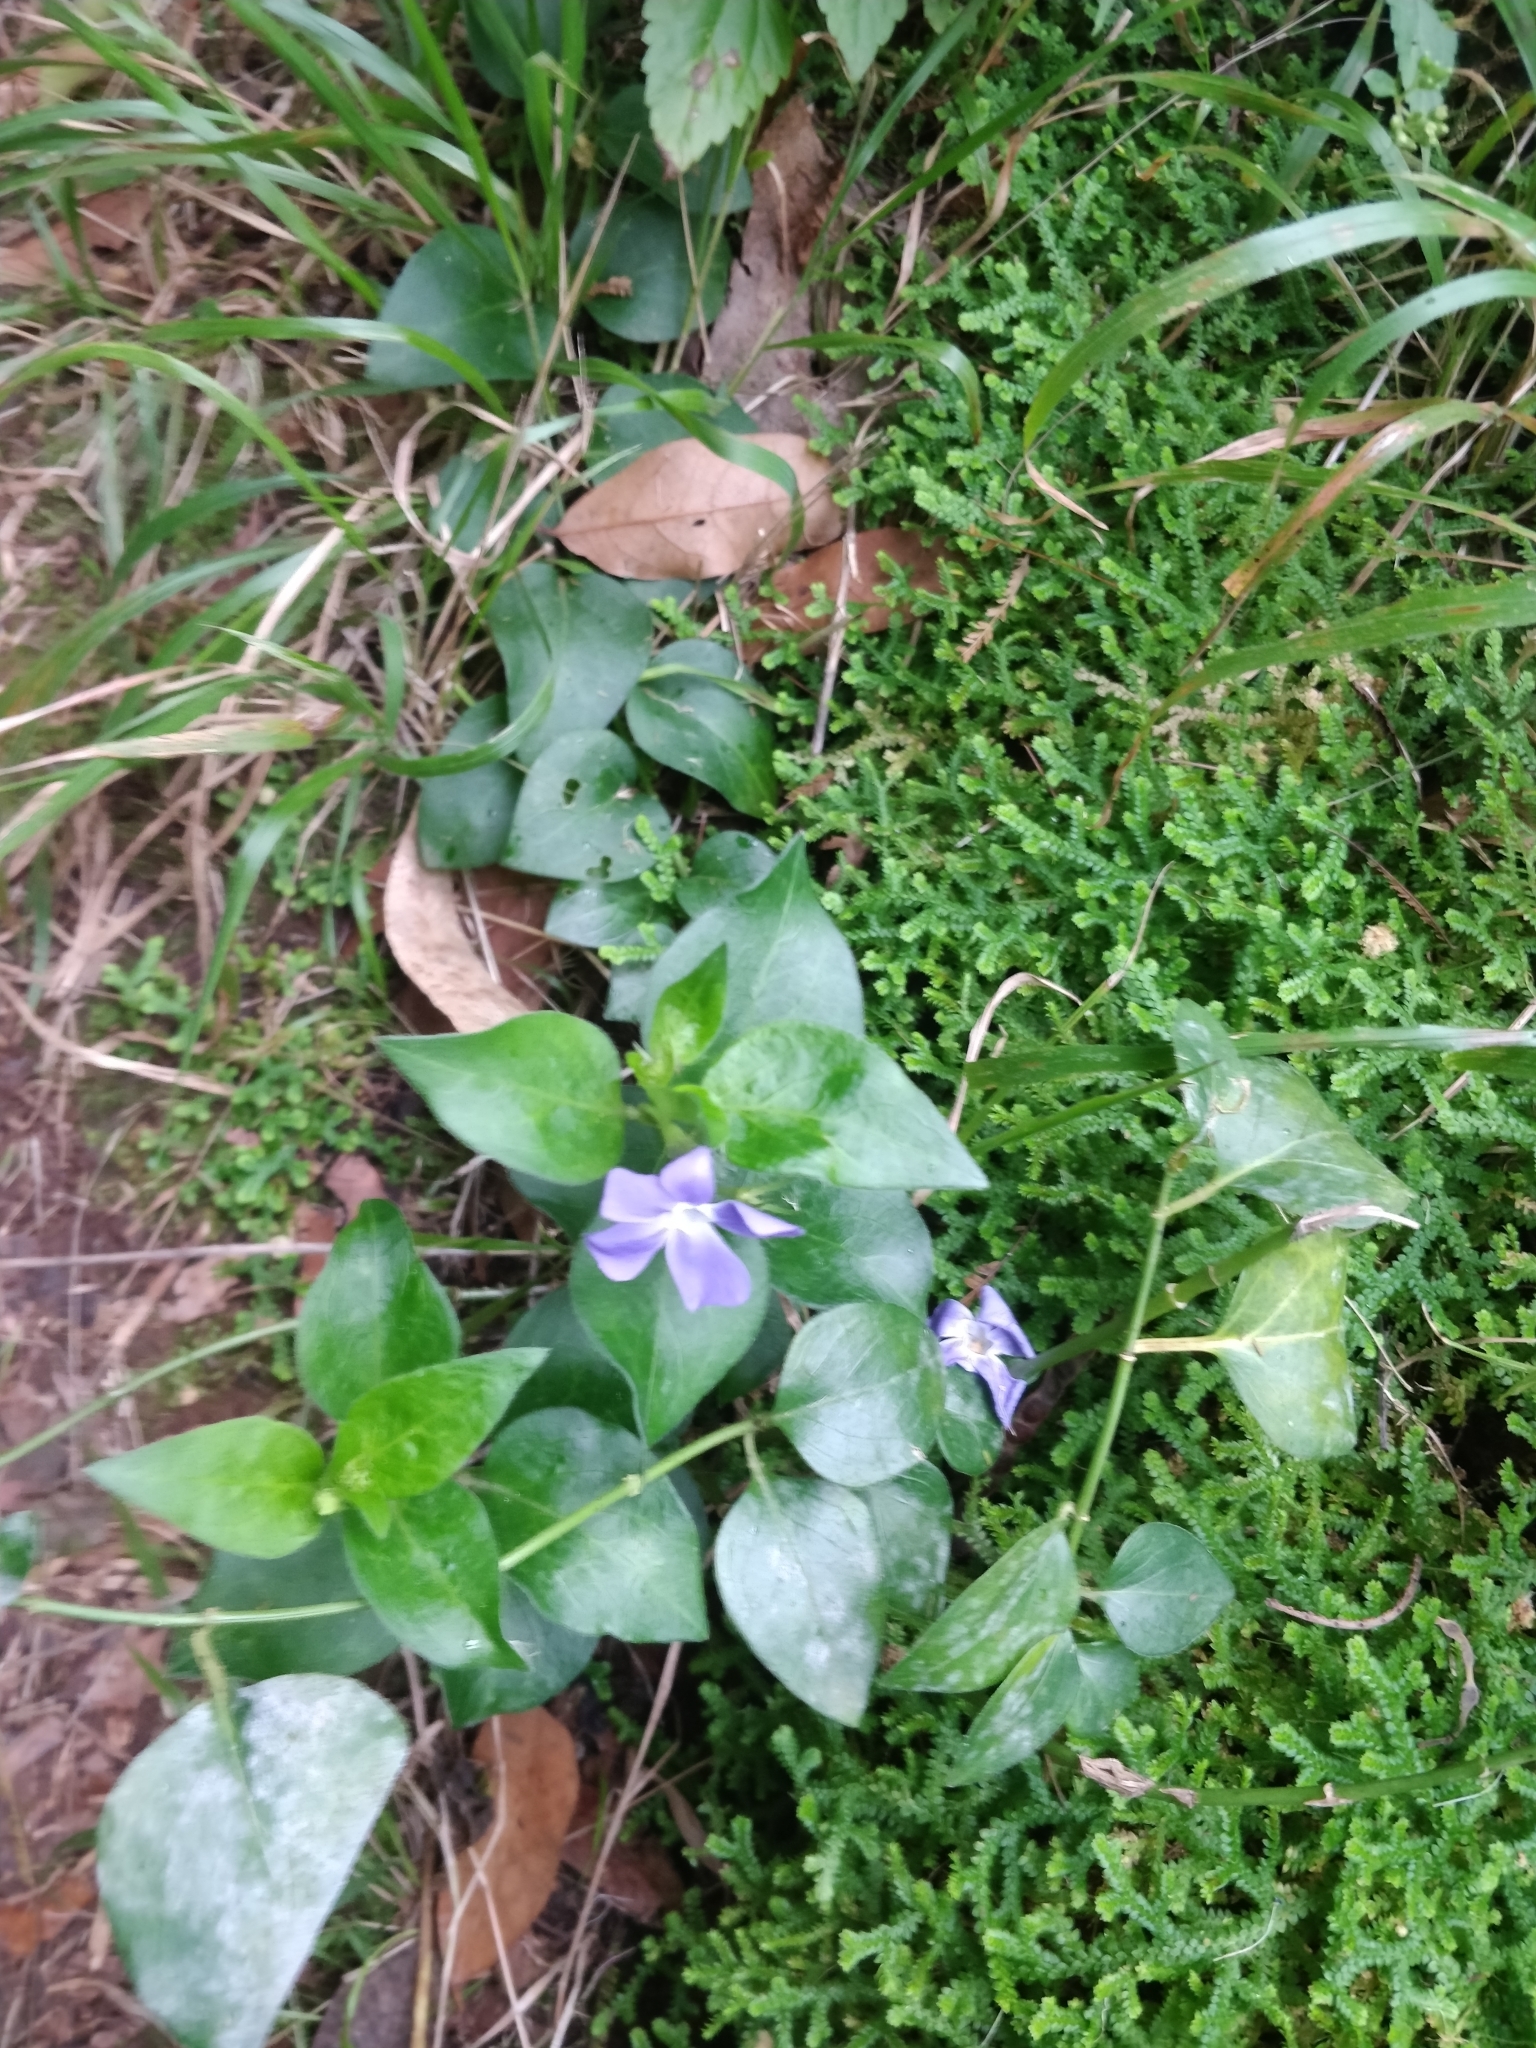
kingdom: Plantae
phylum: Tracheophyta
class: Magnoliopsida
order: Gentianales
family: Apocynaceae
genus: Vinca
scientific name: Vinca major
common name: Greater periwinkle
